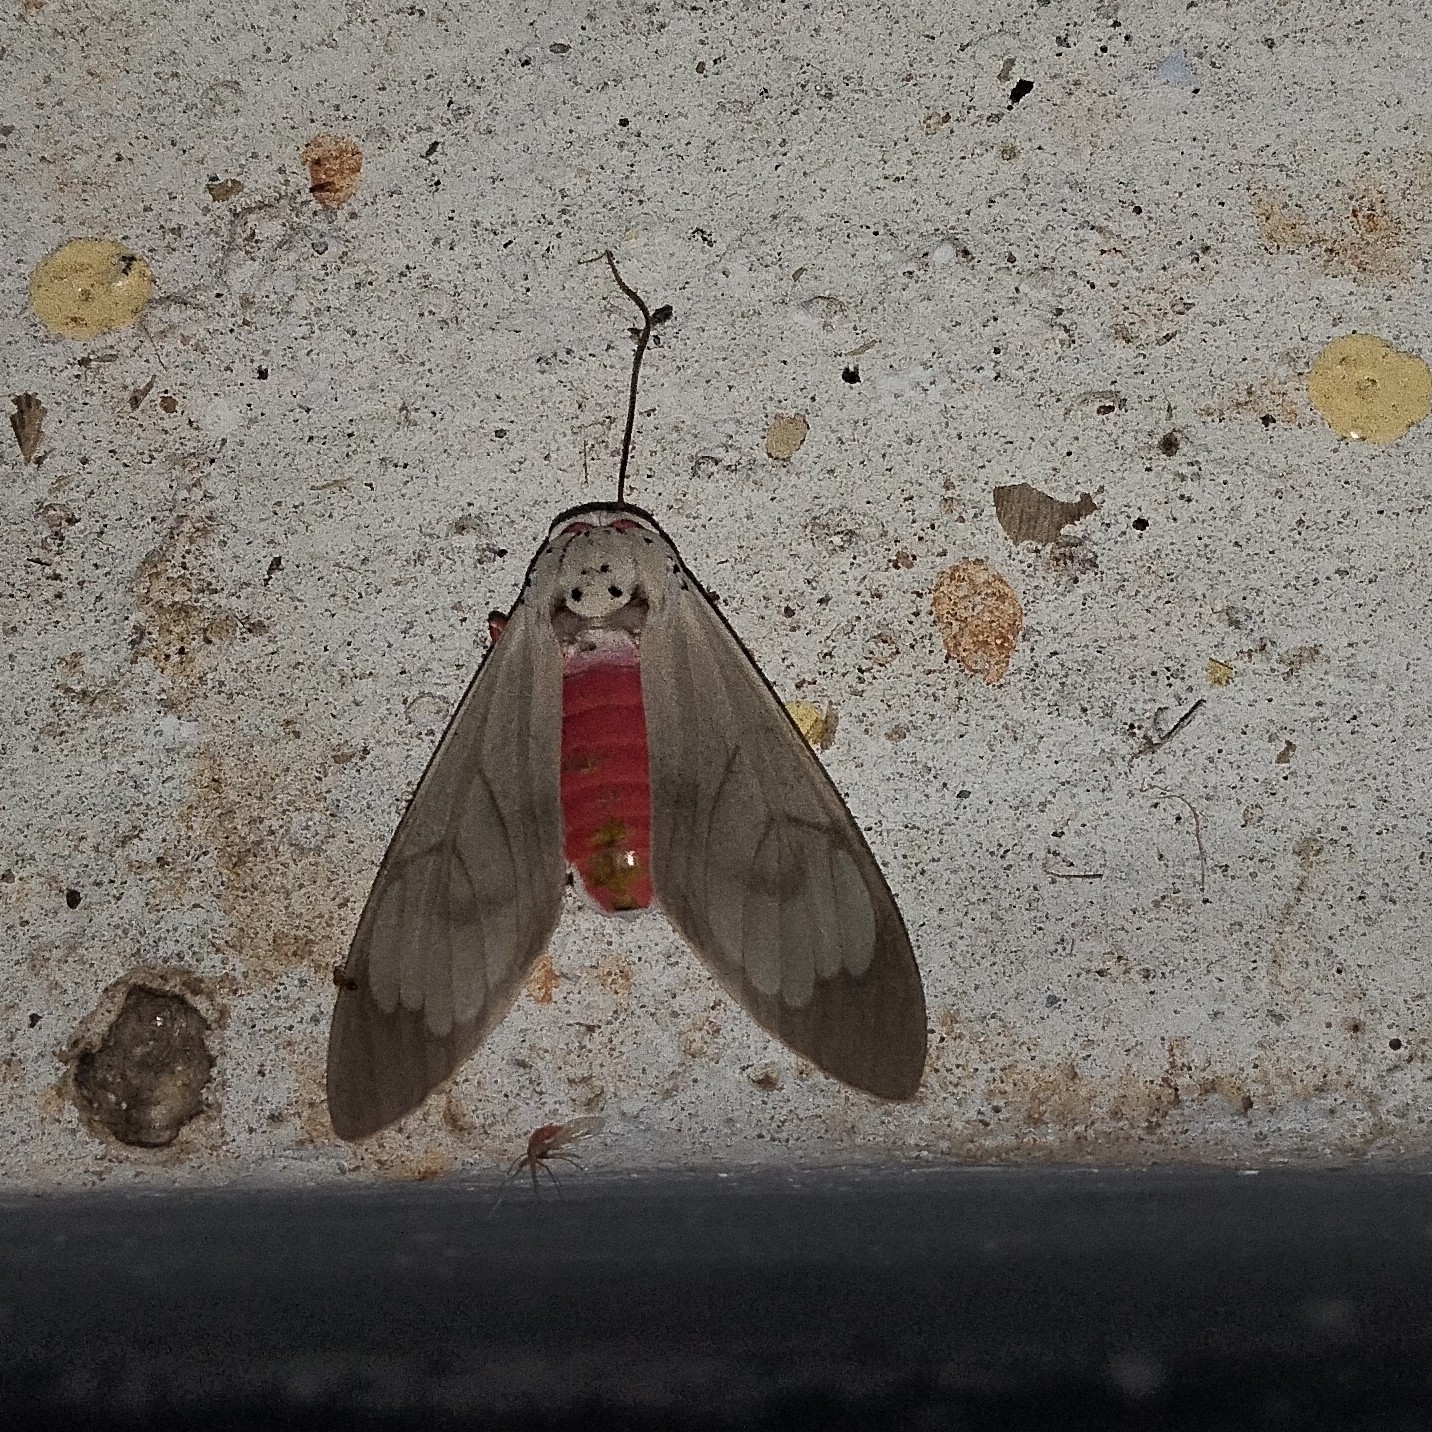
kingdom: Animalia
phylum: Arthropoda
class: Insecta
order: Lepidoptera
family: Erebidae
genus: Amerila
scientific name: Amerila astreus
